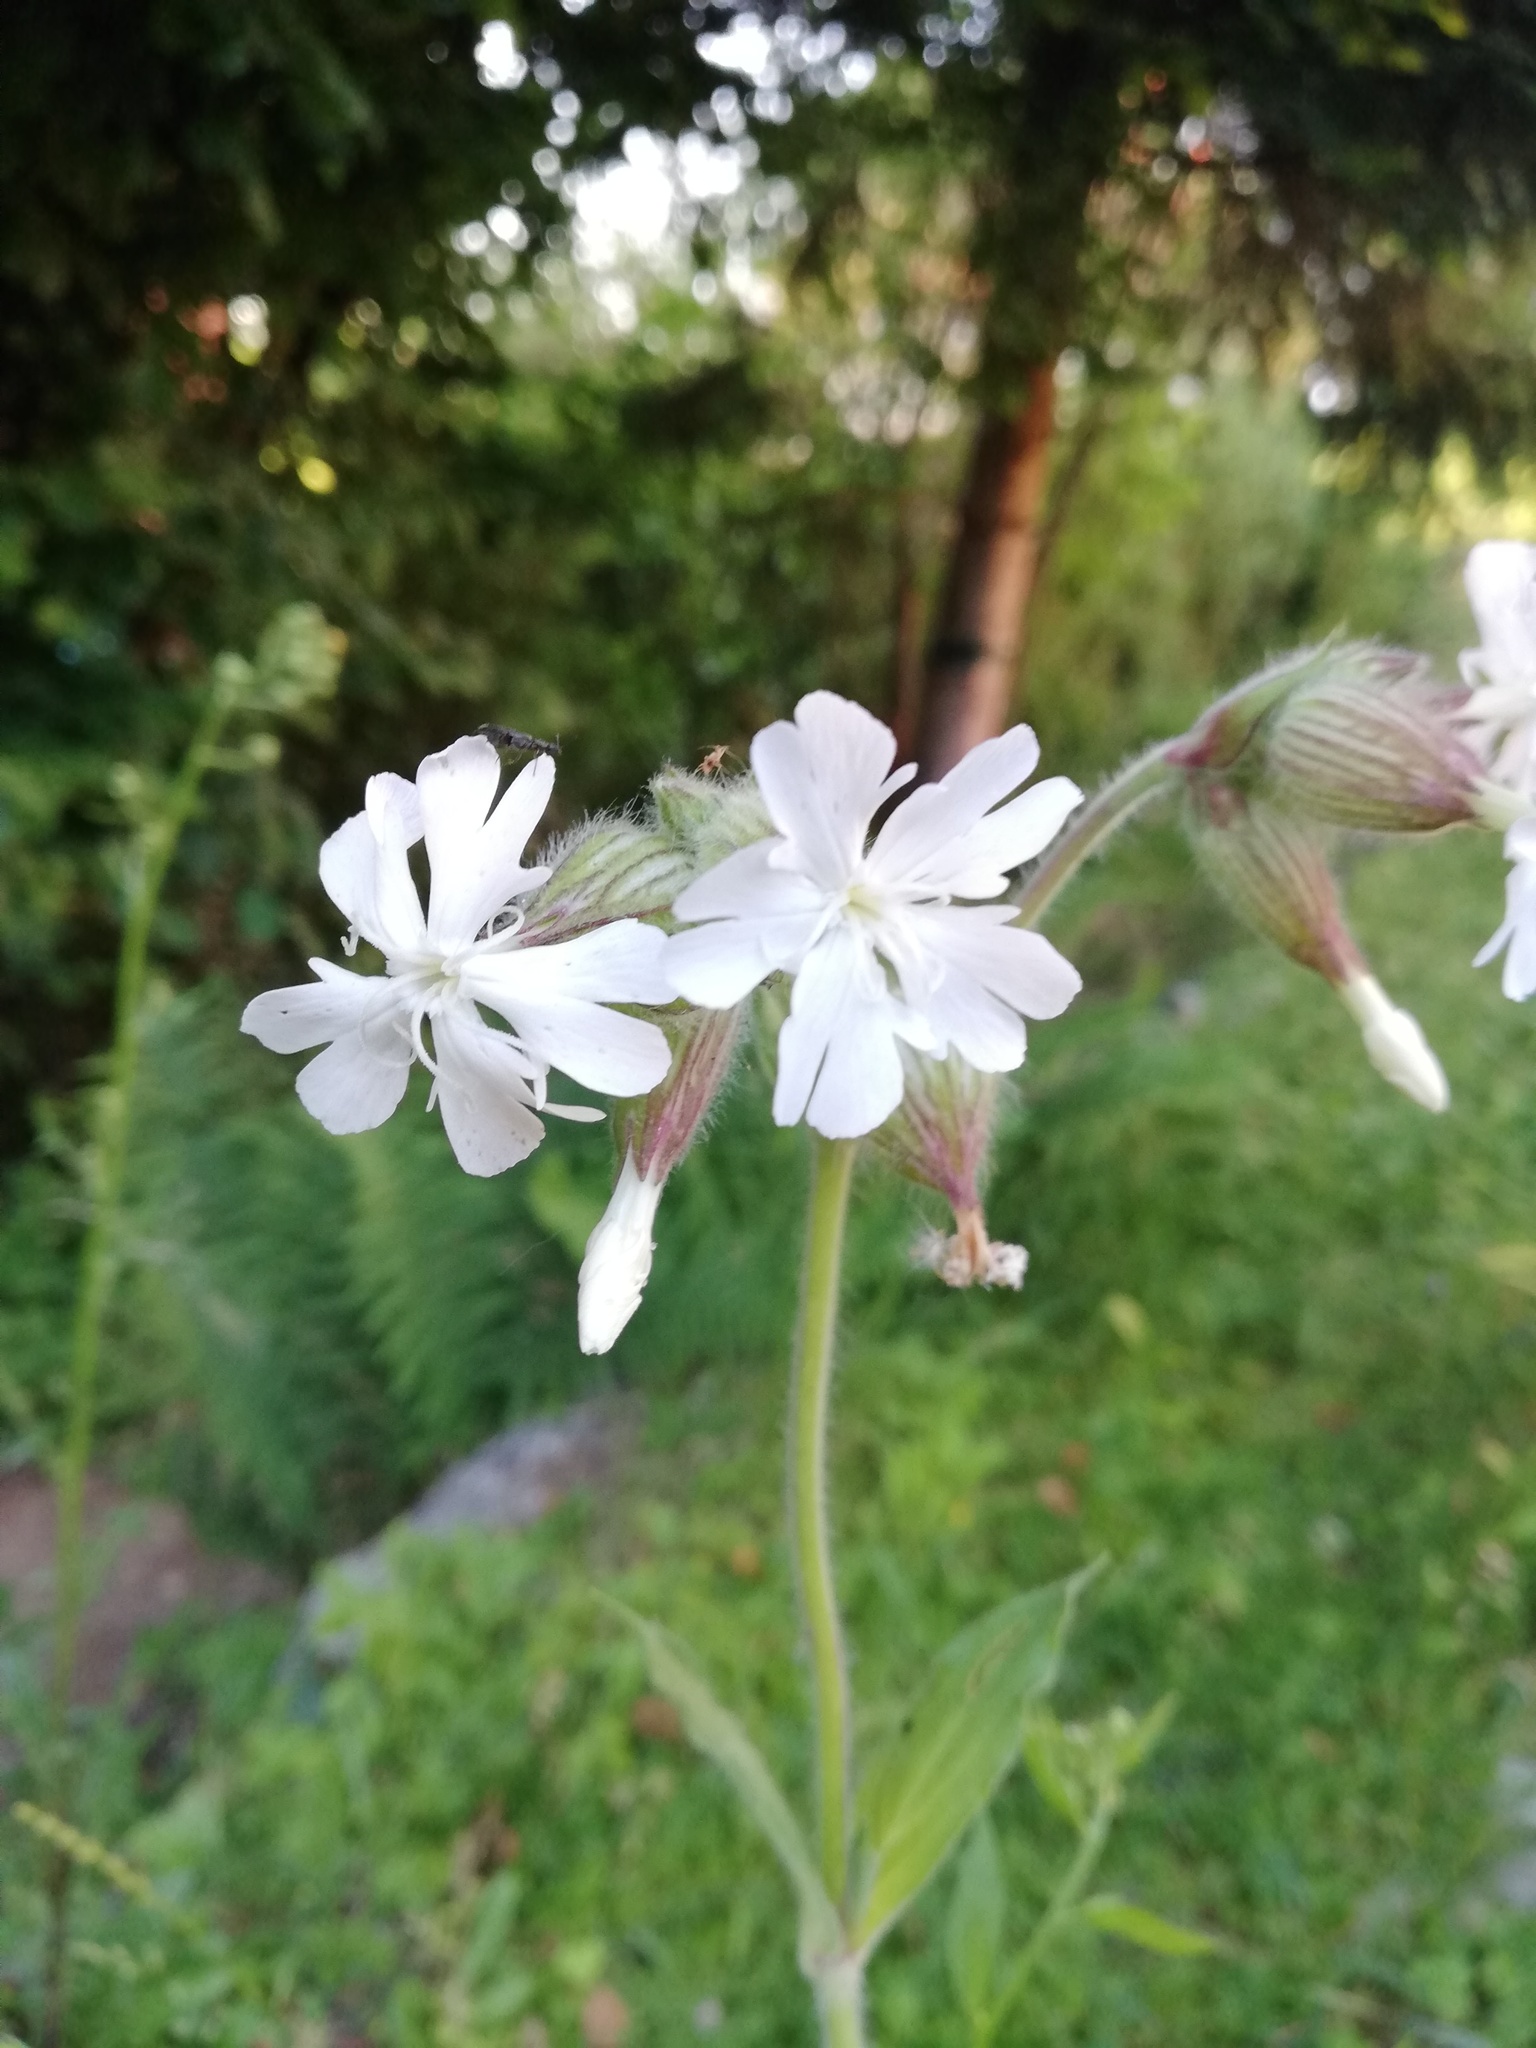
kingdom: Plantae
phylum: Tracheophyta
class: Magnoliopsida
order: Caryophyllales
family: Caryophyllaceae
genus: Silene
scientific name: Silene latifolia
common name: White campion
